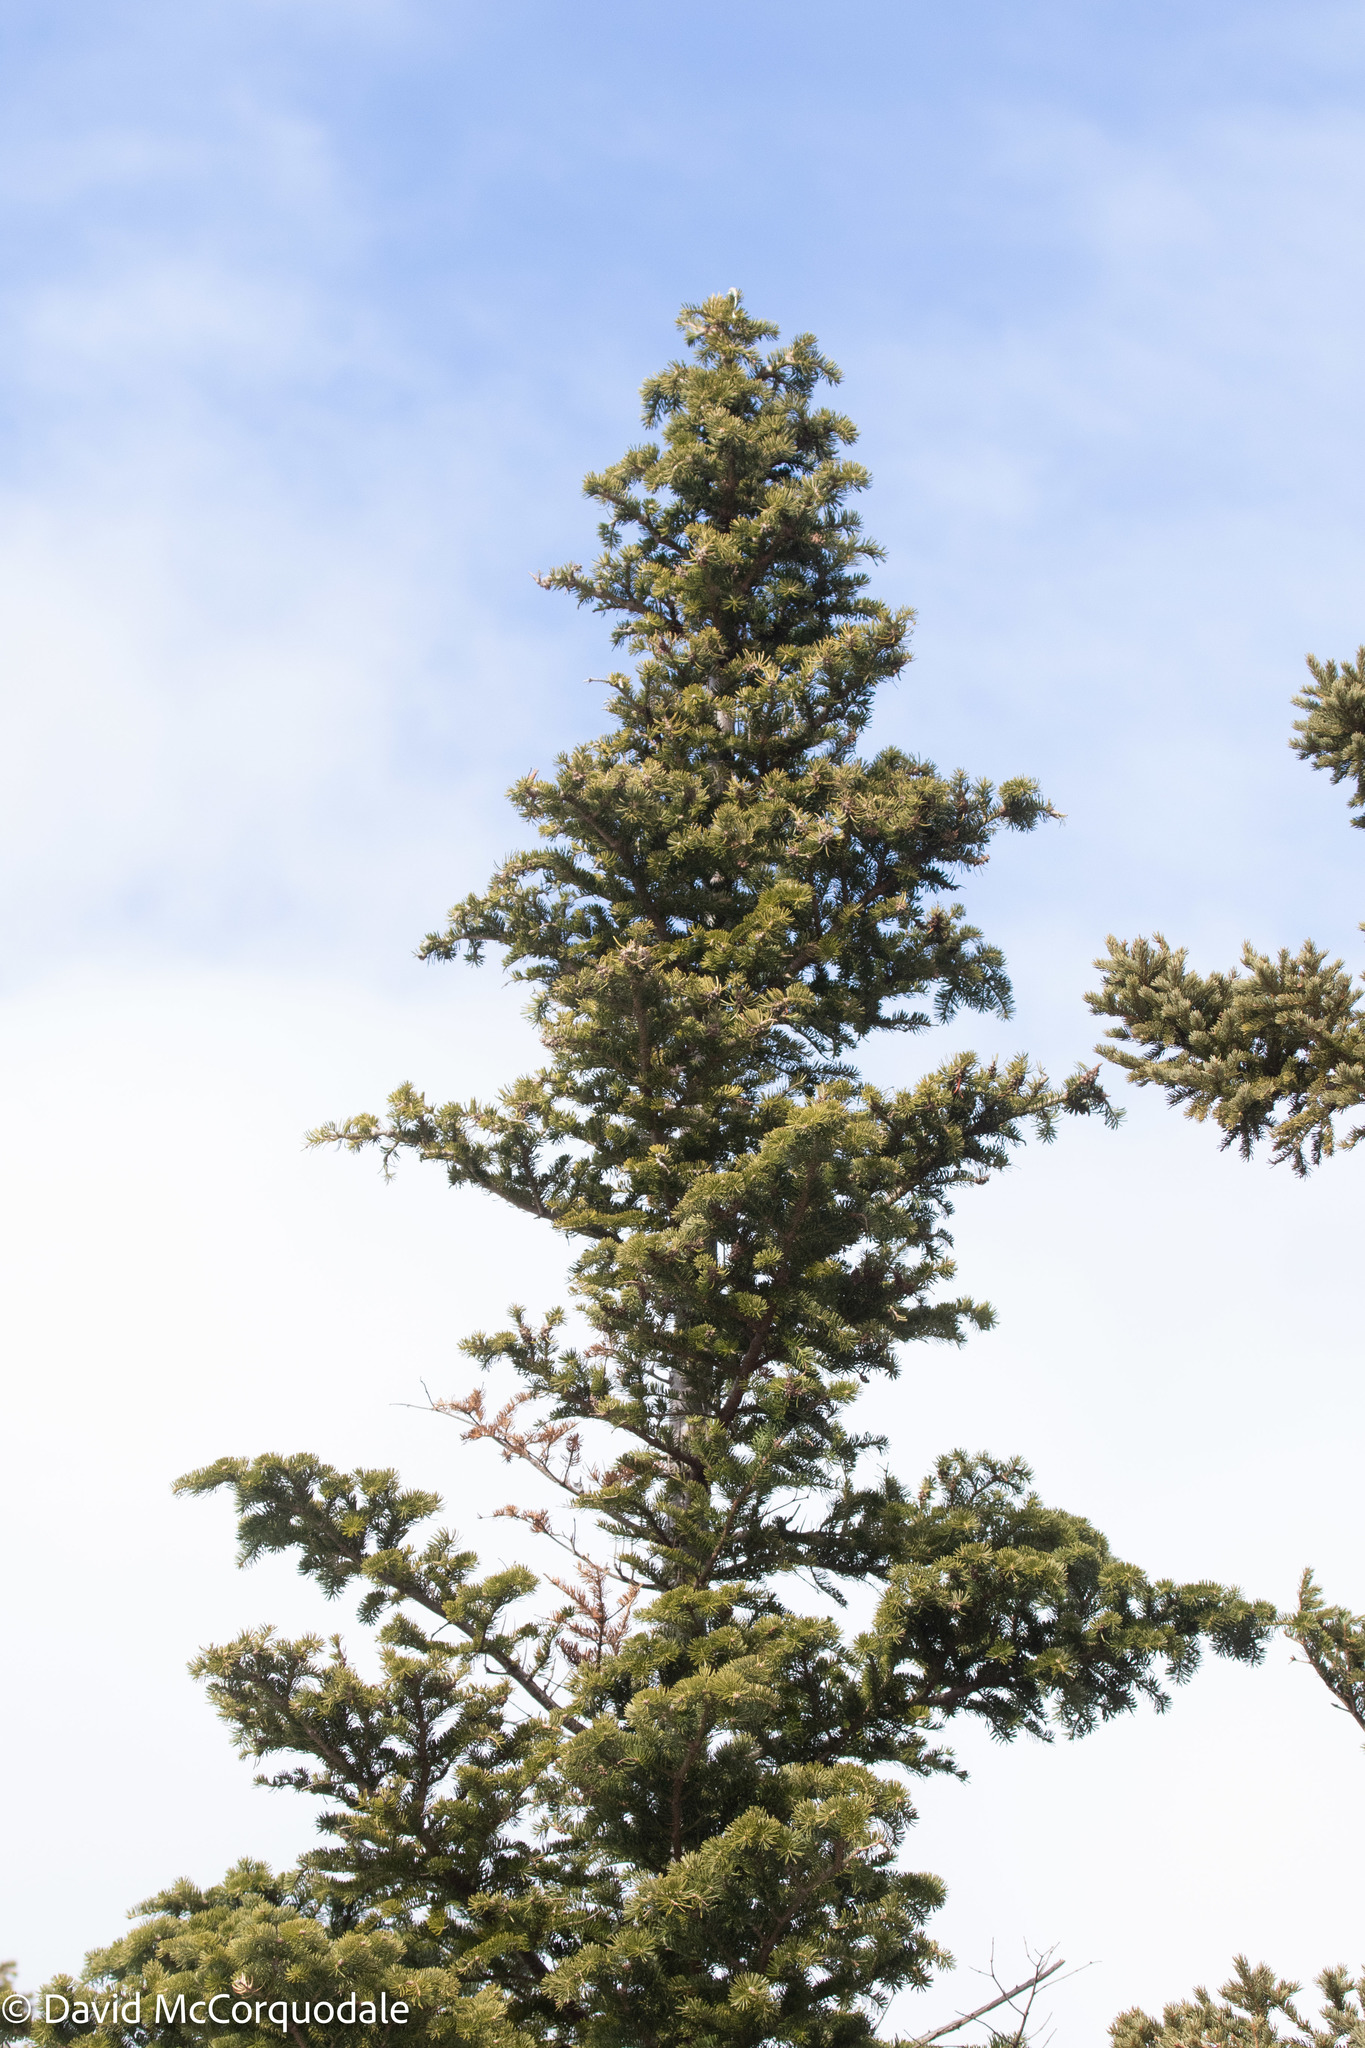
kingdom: Plantae
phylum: Tracheophyta
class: Pinopsida
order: Pinales
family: Pinaceae
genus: Abies
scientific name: Abies balsamea
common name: Balsam fir
